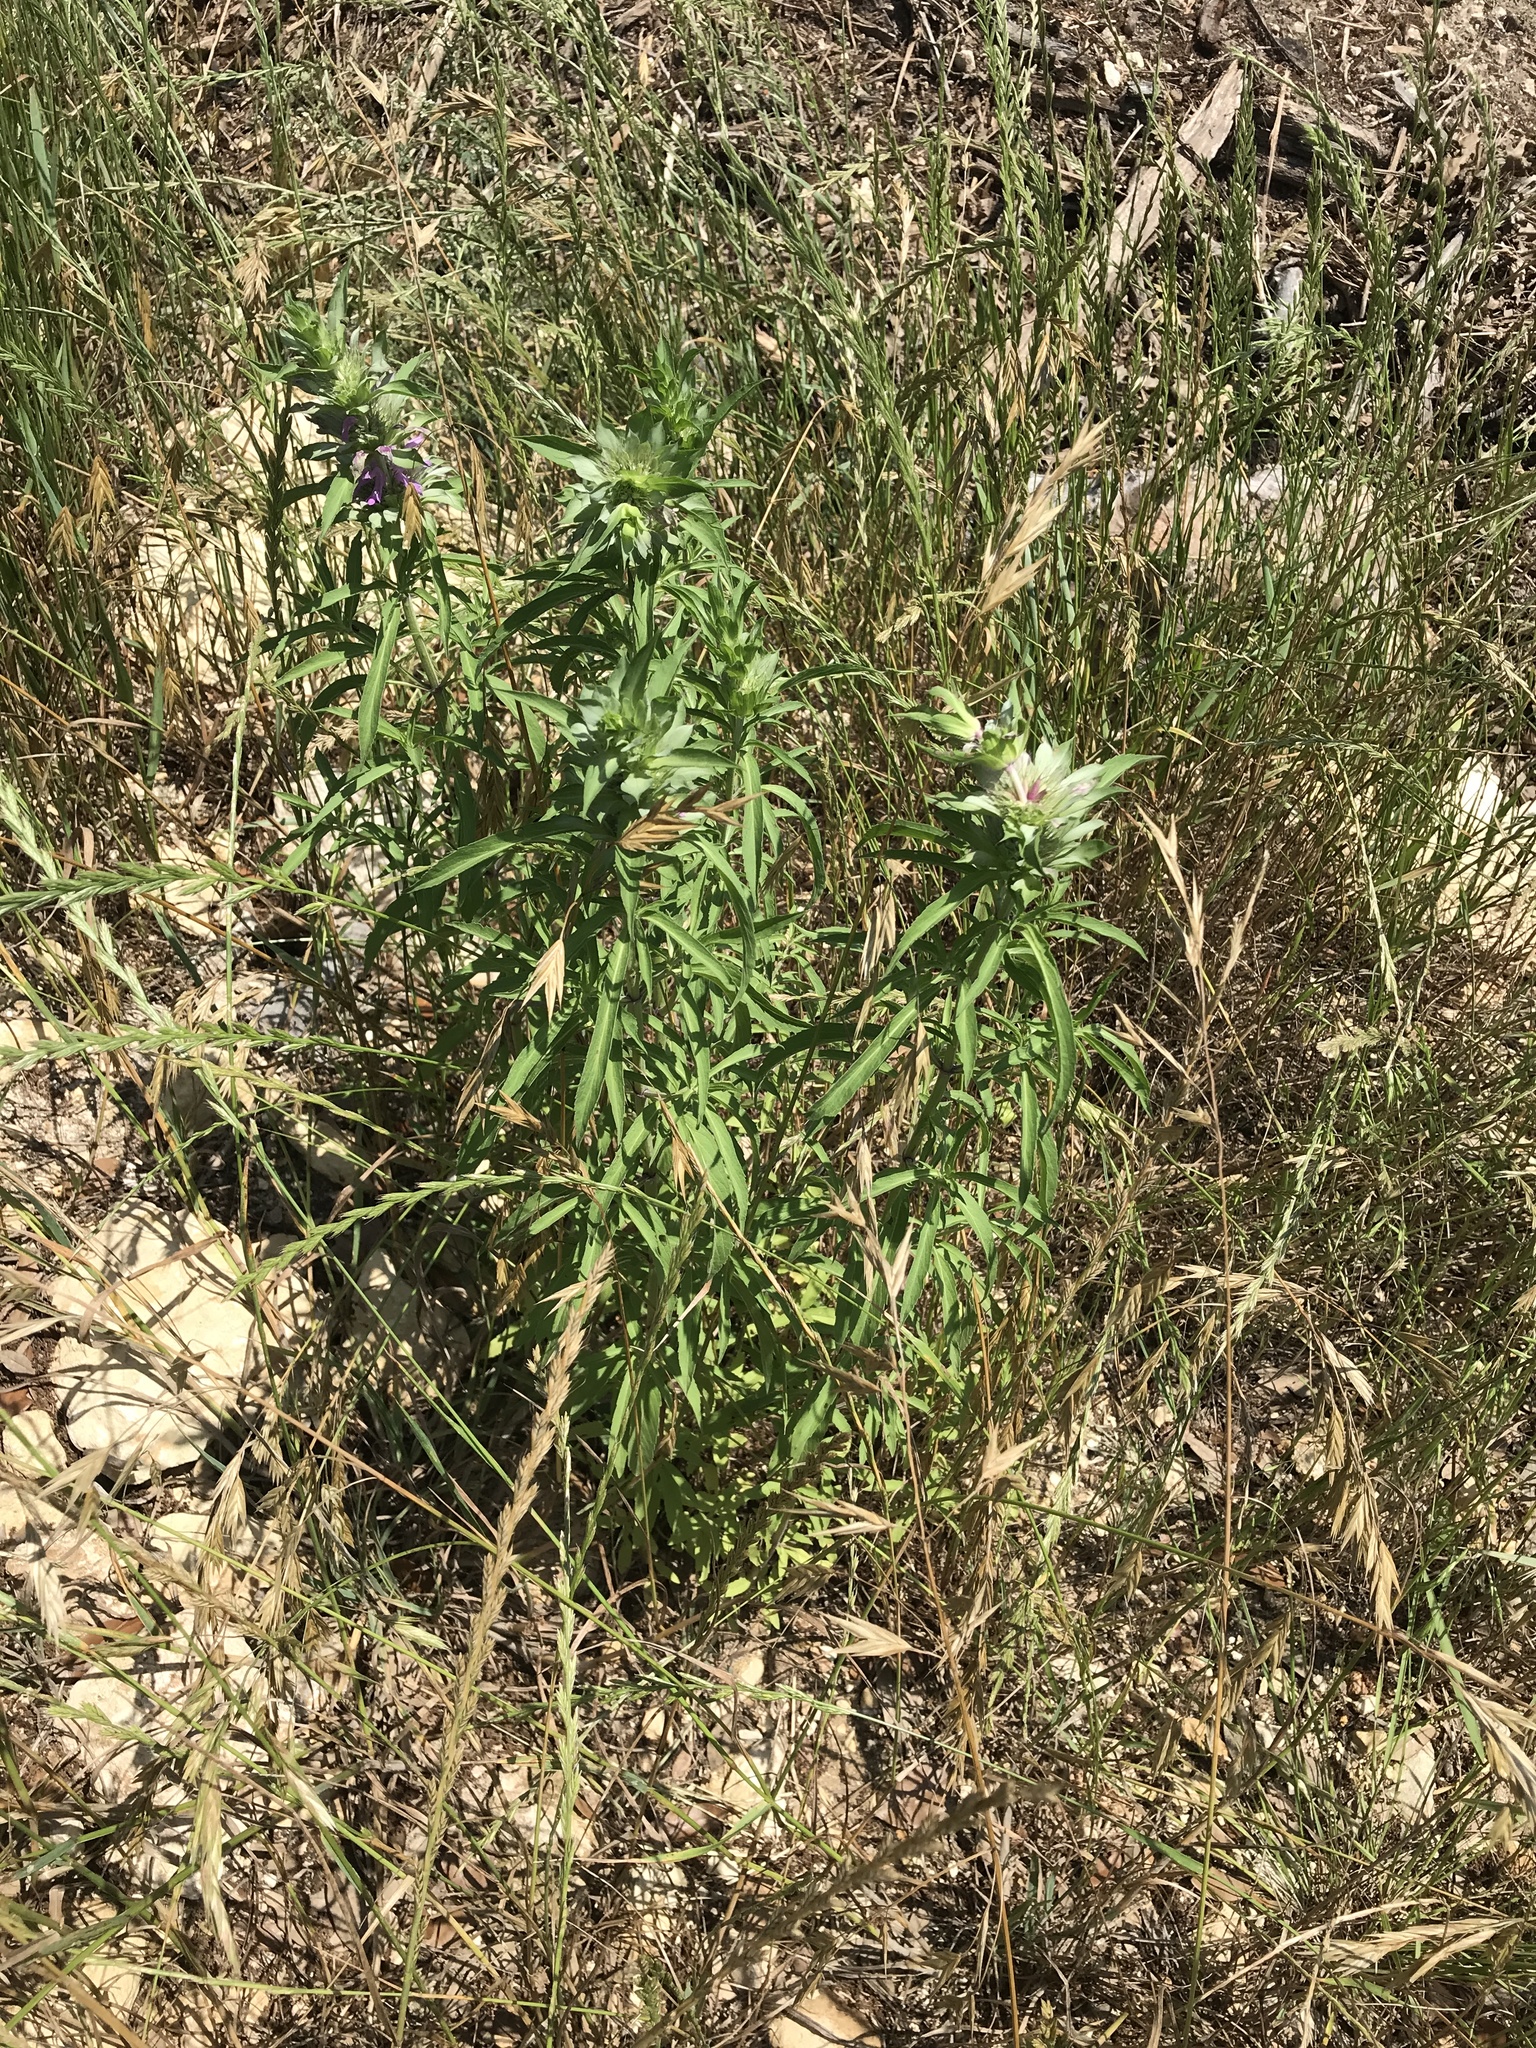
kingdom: Plantae
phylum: Tracheophyta
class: Magnoliopsida
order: Lamiales
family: Lamiaceae
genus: Monarda
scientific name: Monarda citriodora
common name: Lemon beebalm
